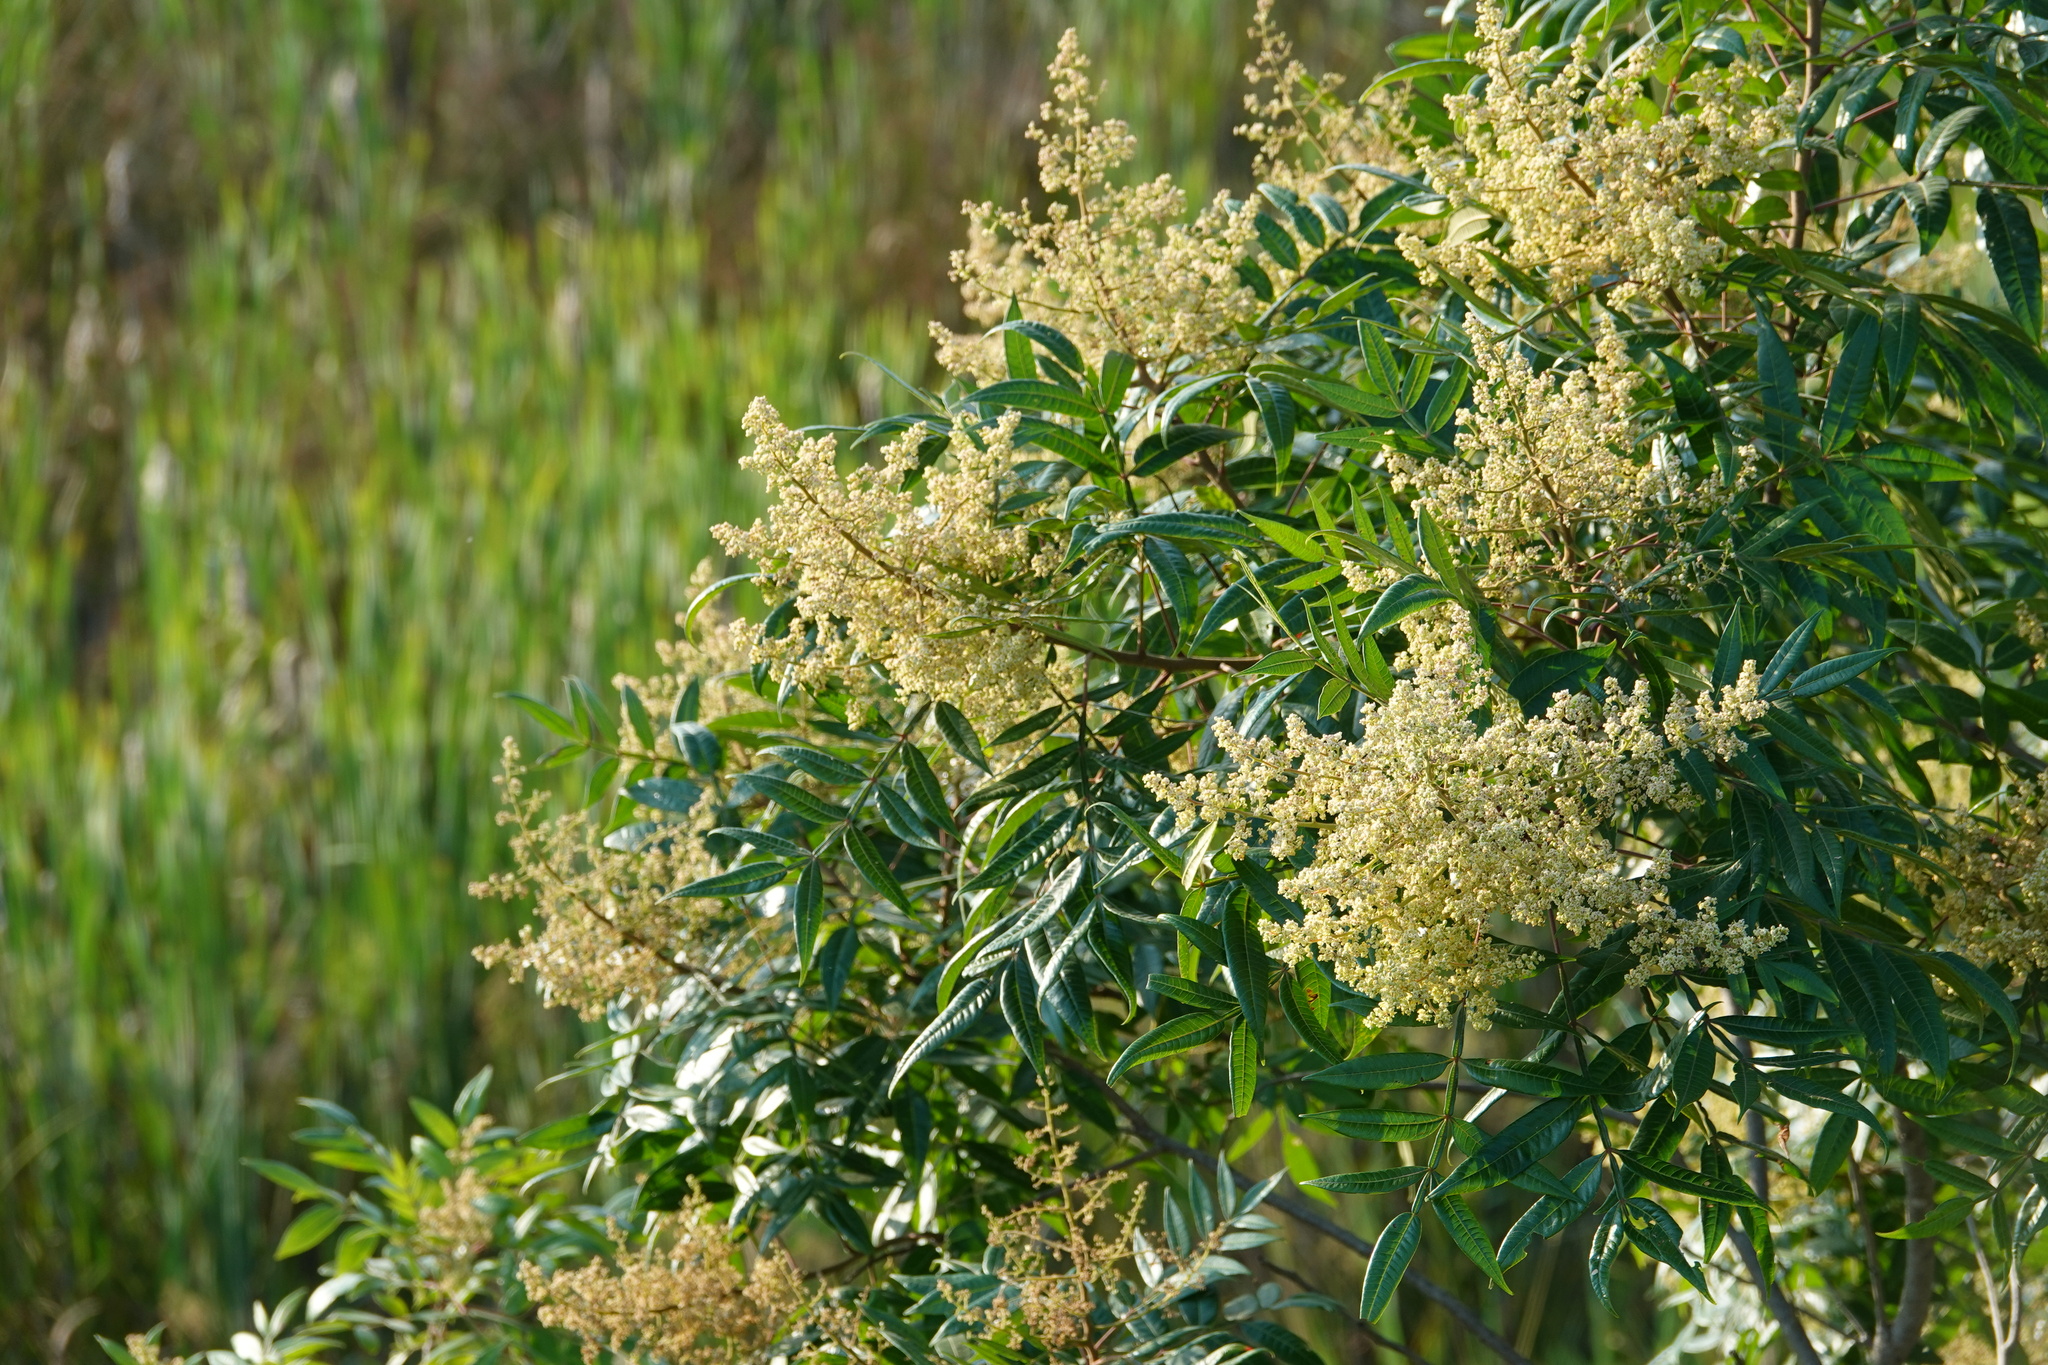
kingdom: Plantae
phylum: Tracheophyta
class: Magnoliopsida
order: Sapindales
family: Anacardiaceae
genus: Rhus
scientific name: Rhus copallina
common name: Shining sumac
